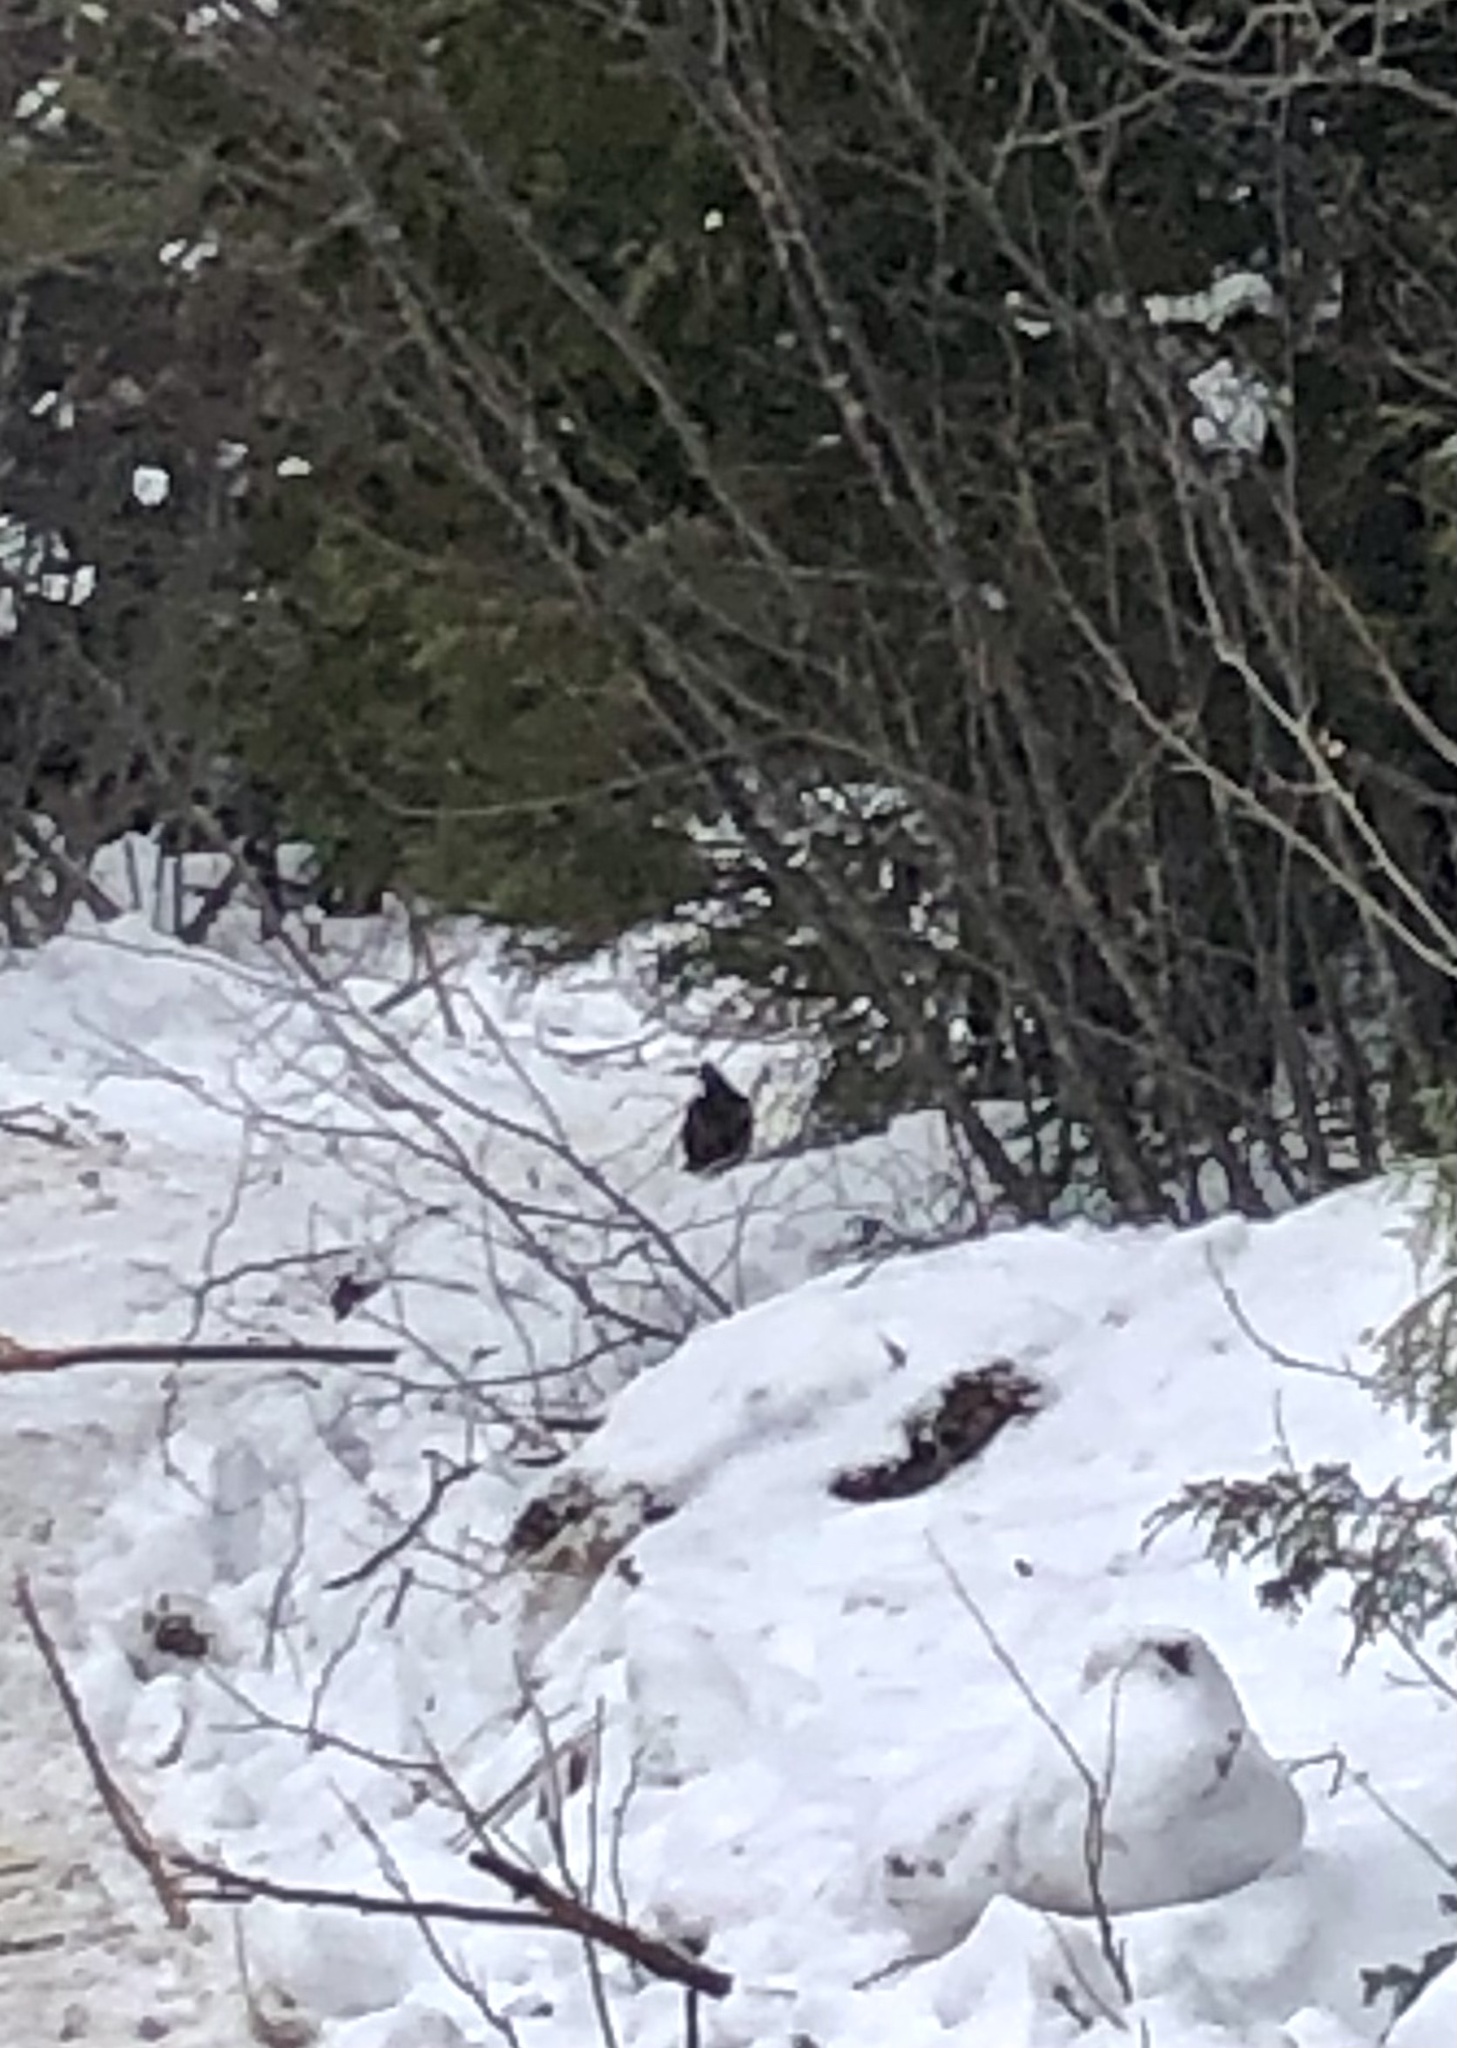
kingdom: Animalia
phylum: Chordata
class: Aves
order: Galliformes
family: Phasianidae
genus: Bonasa
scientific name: Bonasa umbellus
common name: Ruffed grouse
